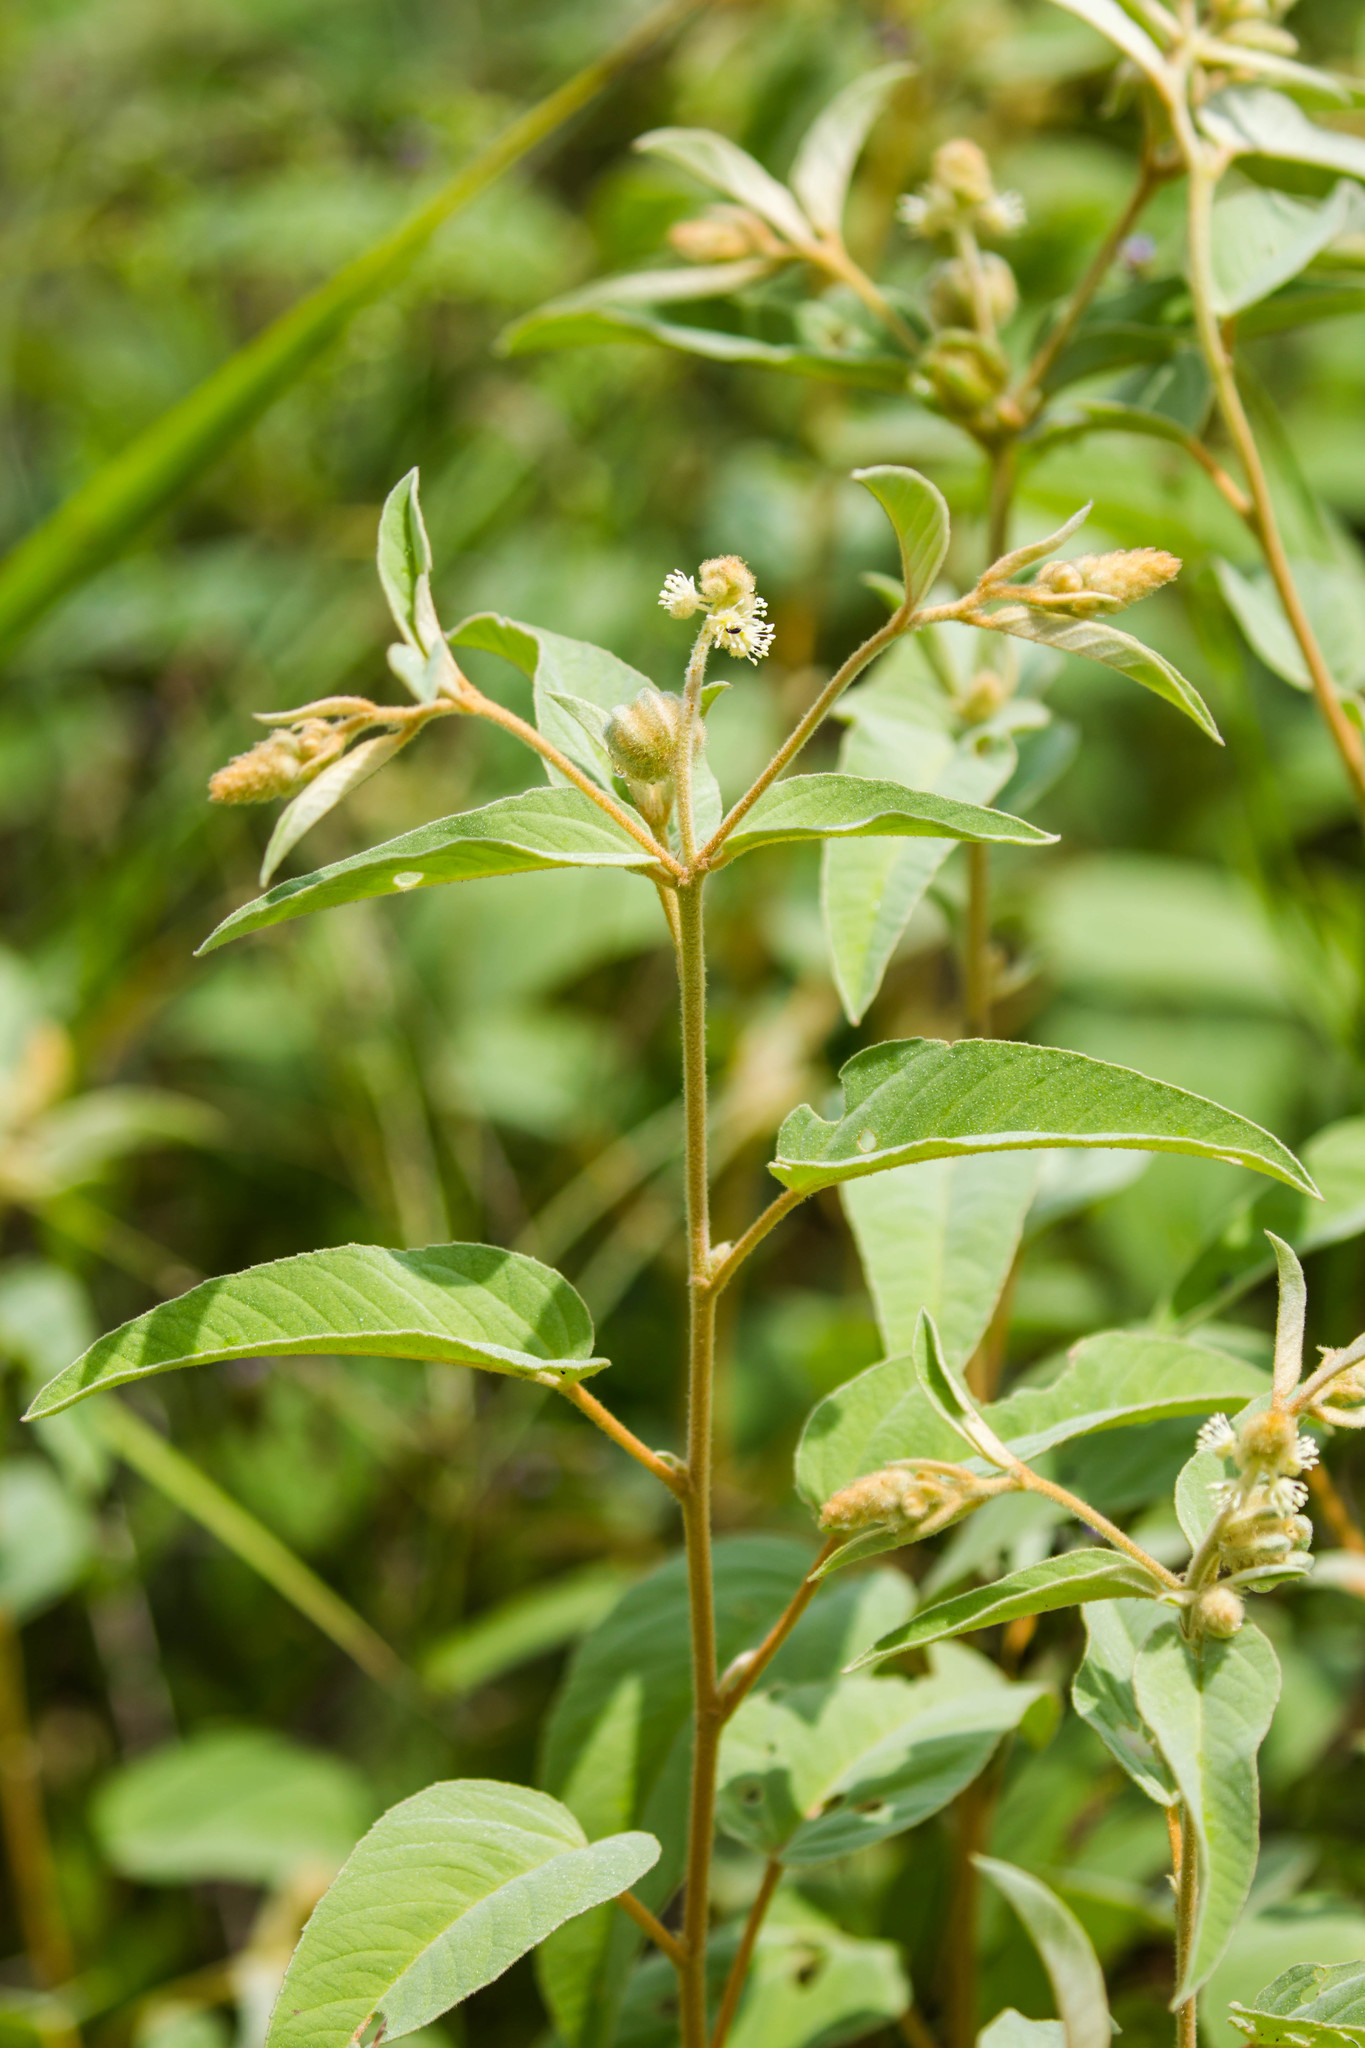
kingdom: Plantae
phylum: Tracheophyta
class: Magnoliopsida
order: Malpighiales
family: Euphorbiaceae
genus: Croton
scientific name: Croton lindheimeri
